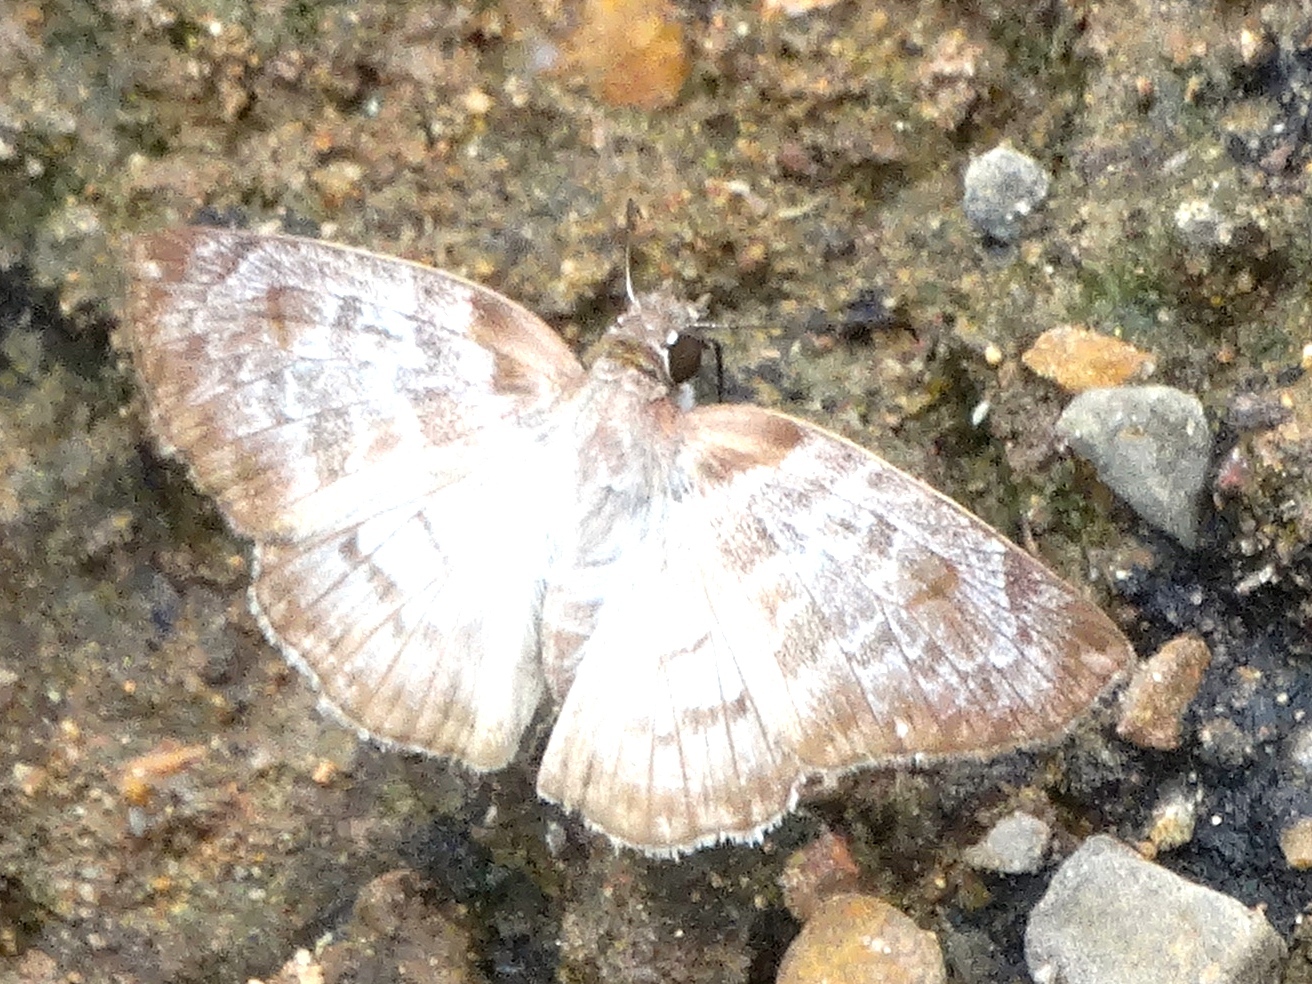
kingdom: Animalia
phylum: Arthropoda
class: Insecta
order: Lepidoptera
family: Hesperiidae
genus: Mylon
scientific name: Mylon pelopidas
